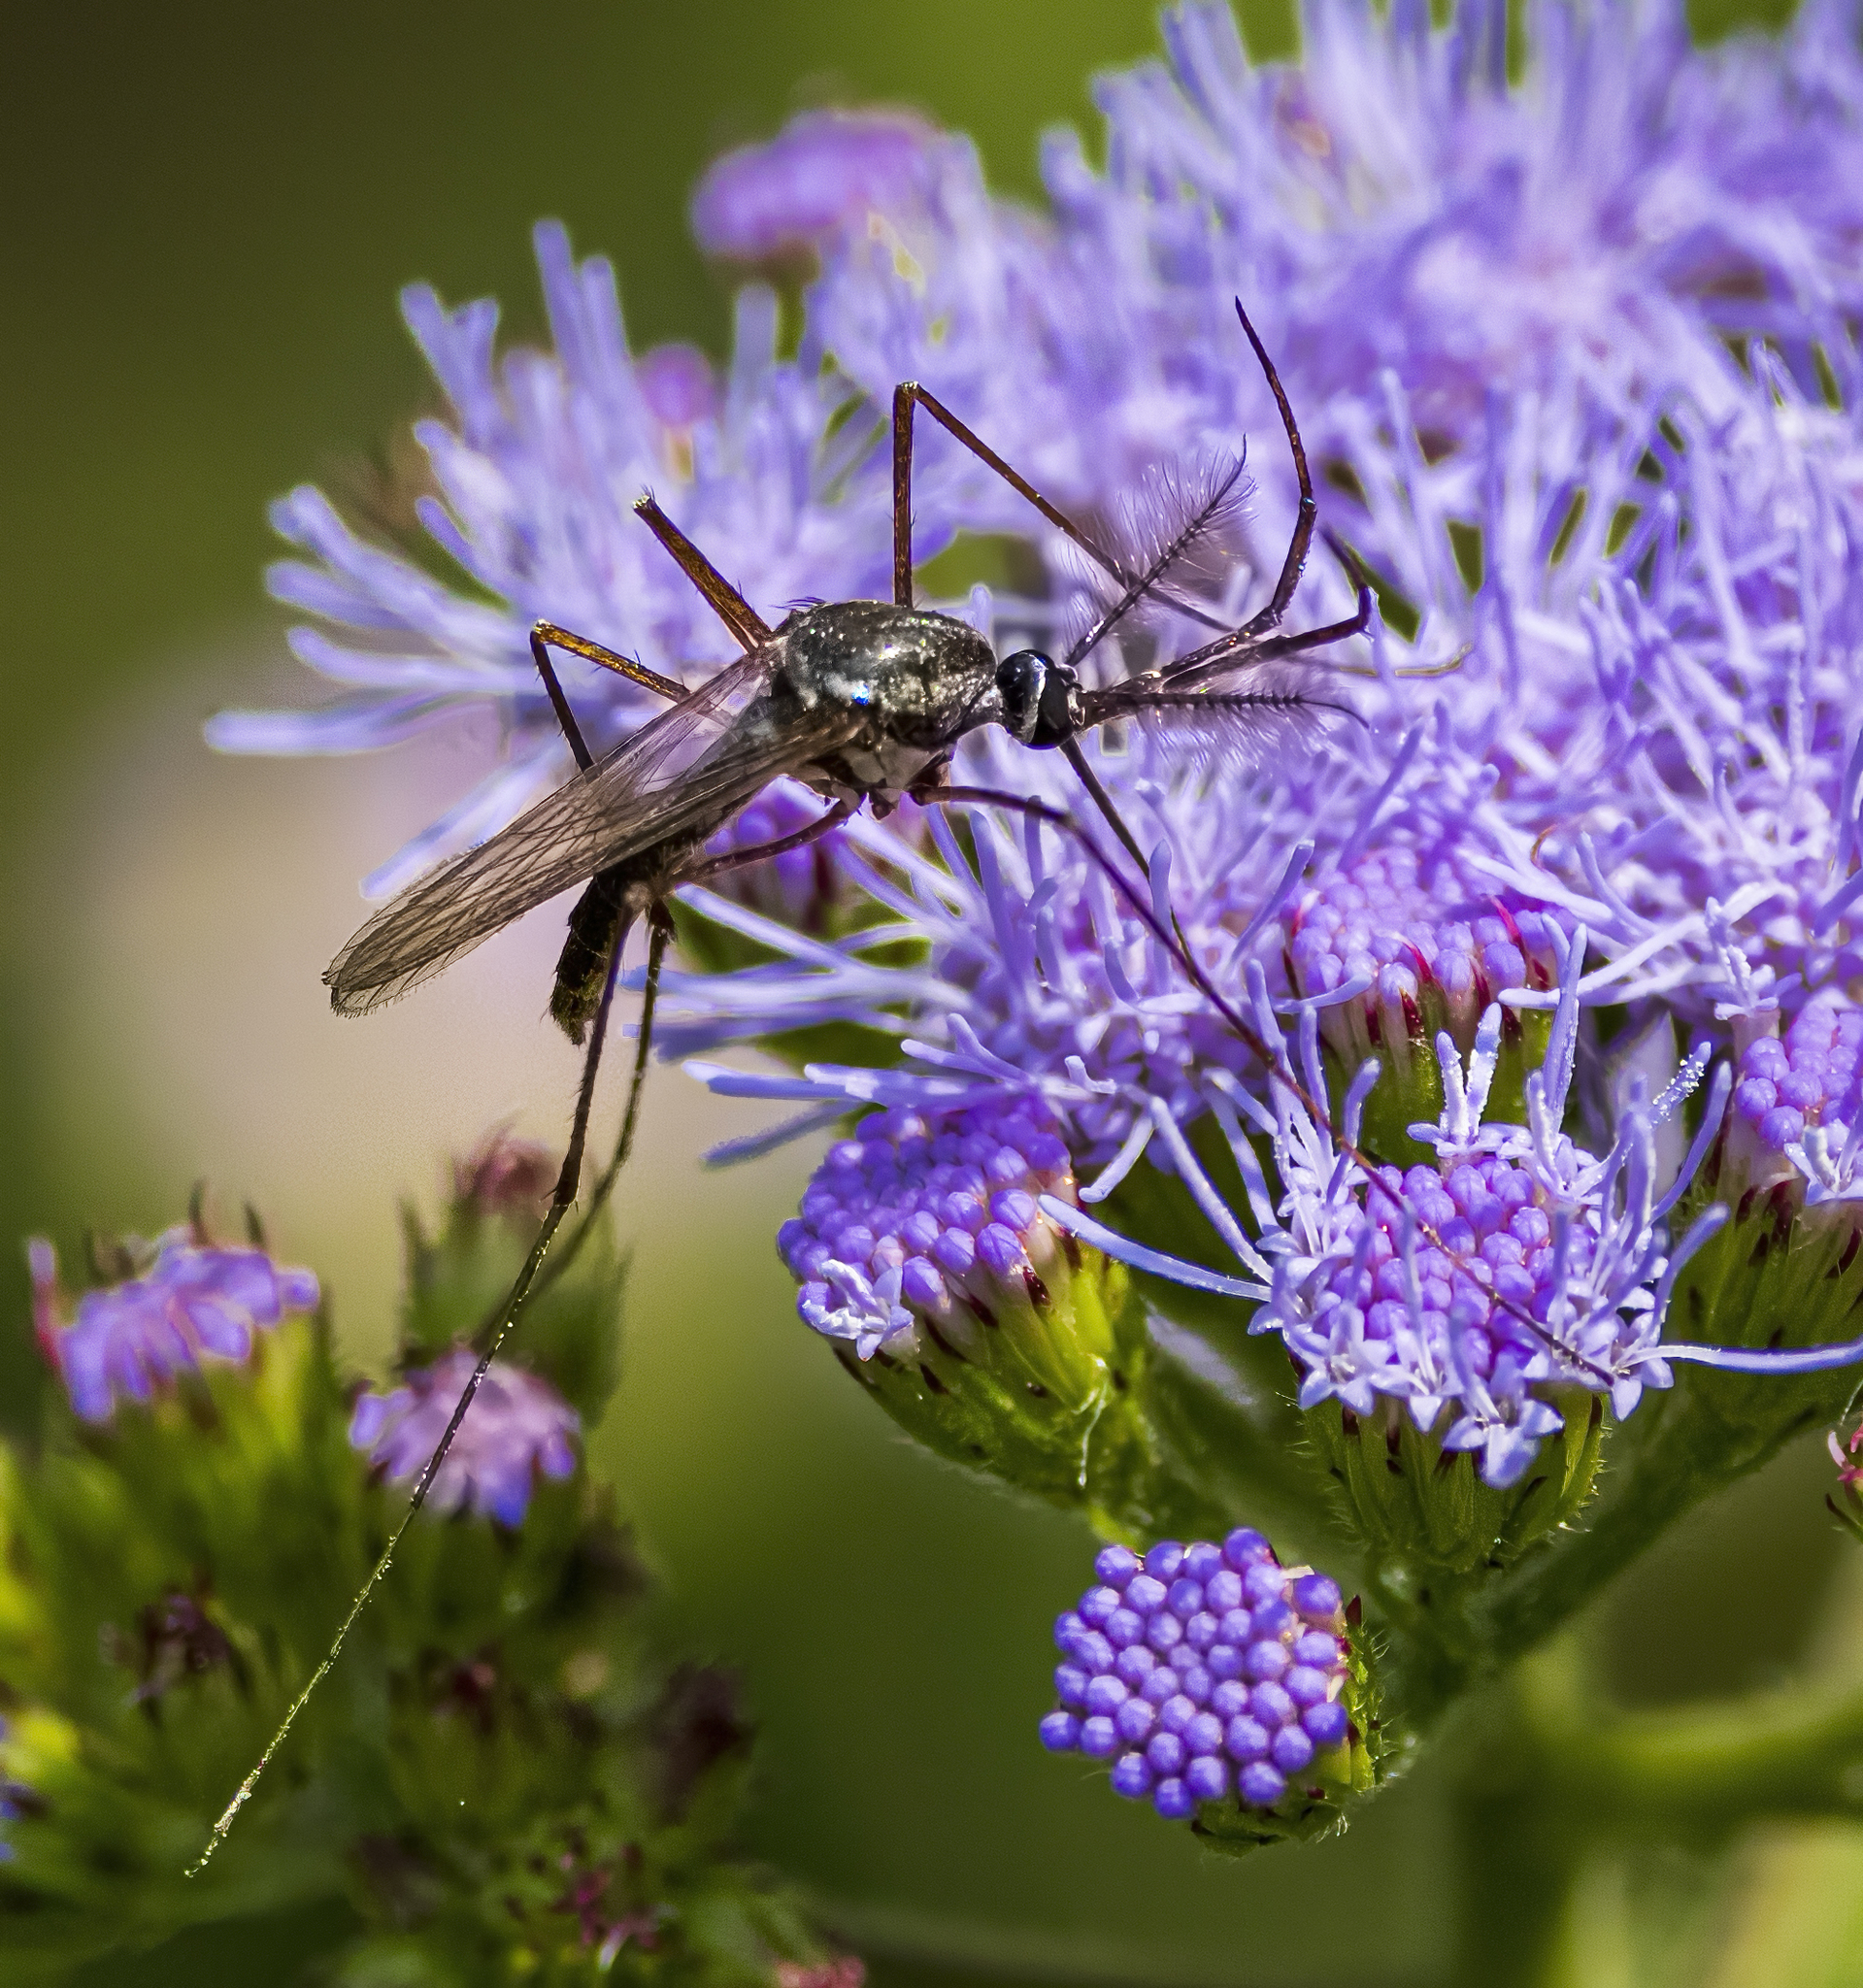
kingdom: Animalia
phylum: Arthropoda
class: Insecta
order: Diptera
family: Culicidae
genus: Toxorhynchites
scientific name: Toxorhynchites rutilus
